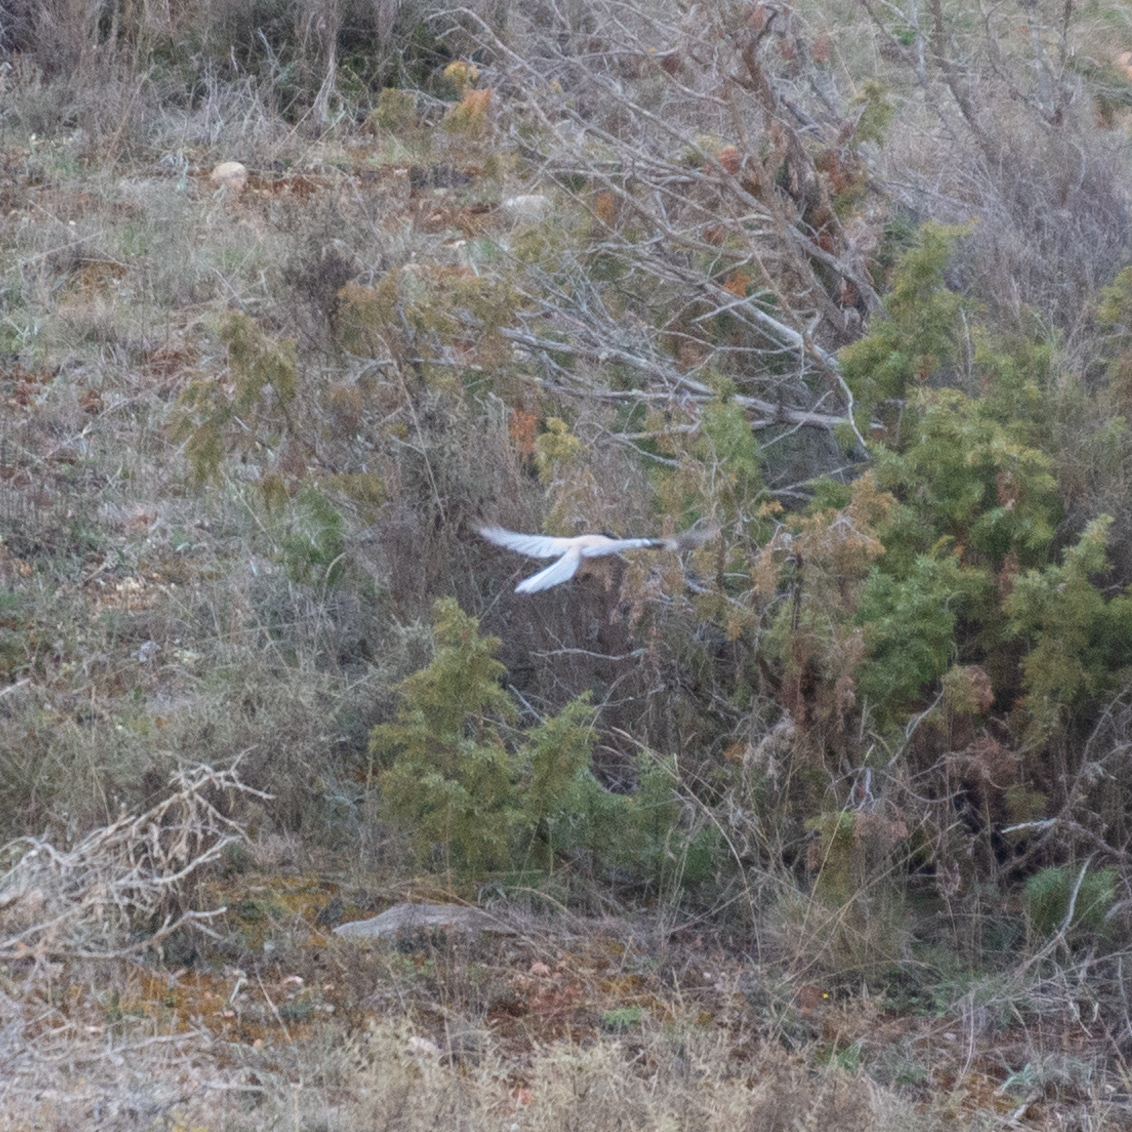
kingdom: Animalia
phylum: Chordata
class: Aves
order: Passeriformes
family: Corvidae
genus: Cyanopica
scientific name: Cyanopica cooki
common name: Iberian magpie
